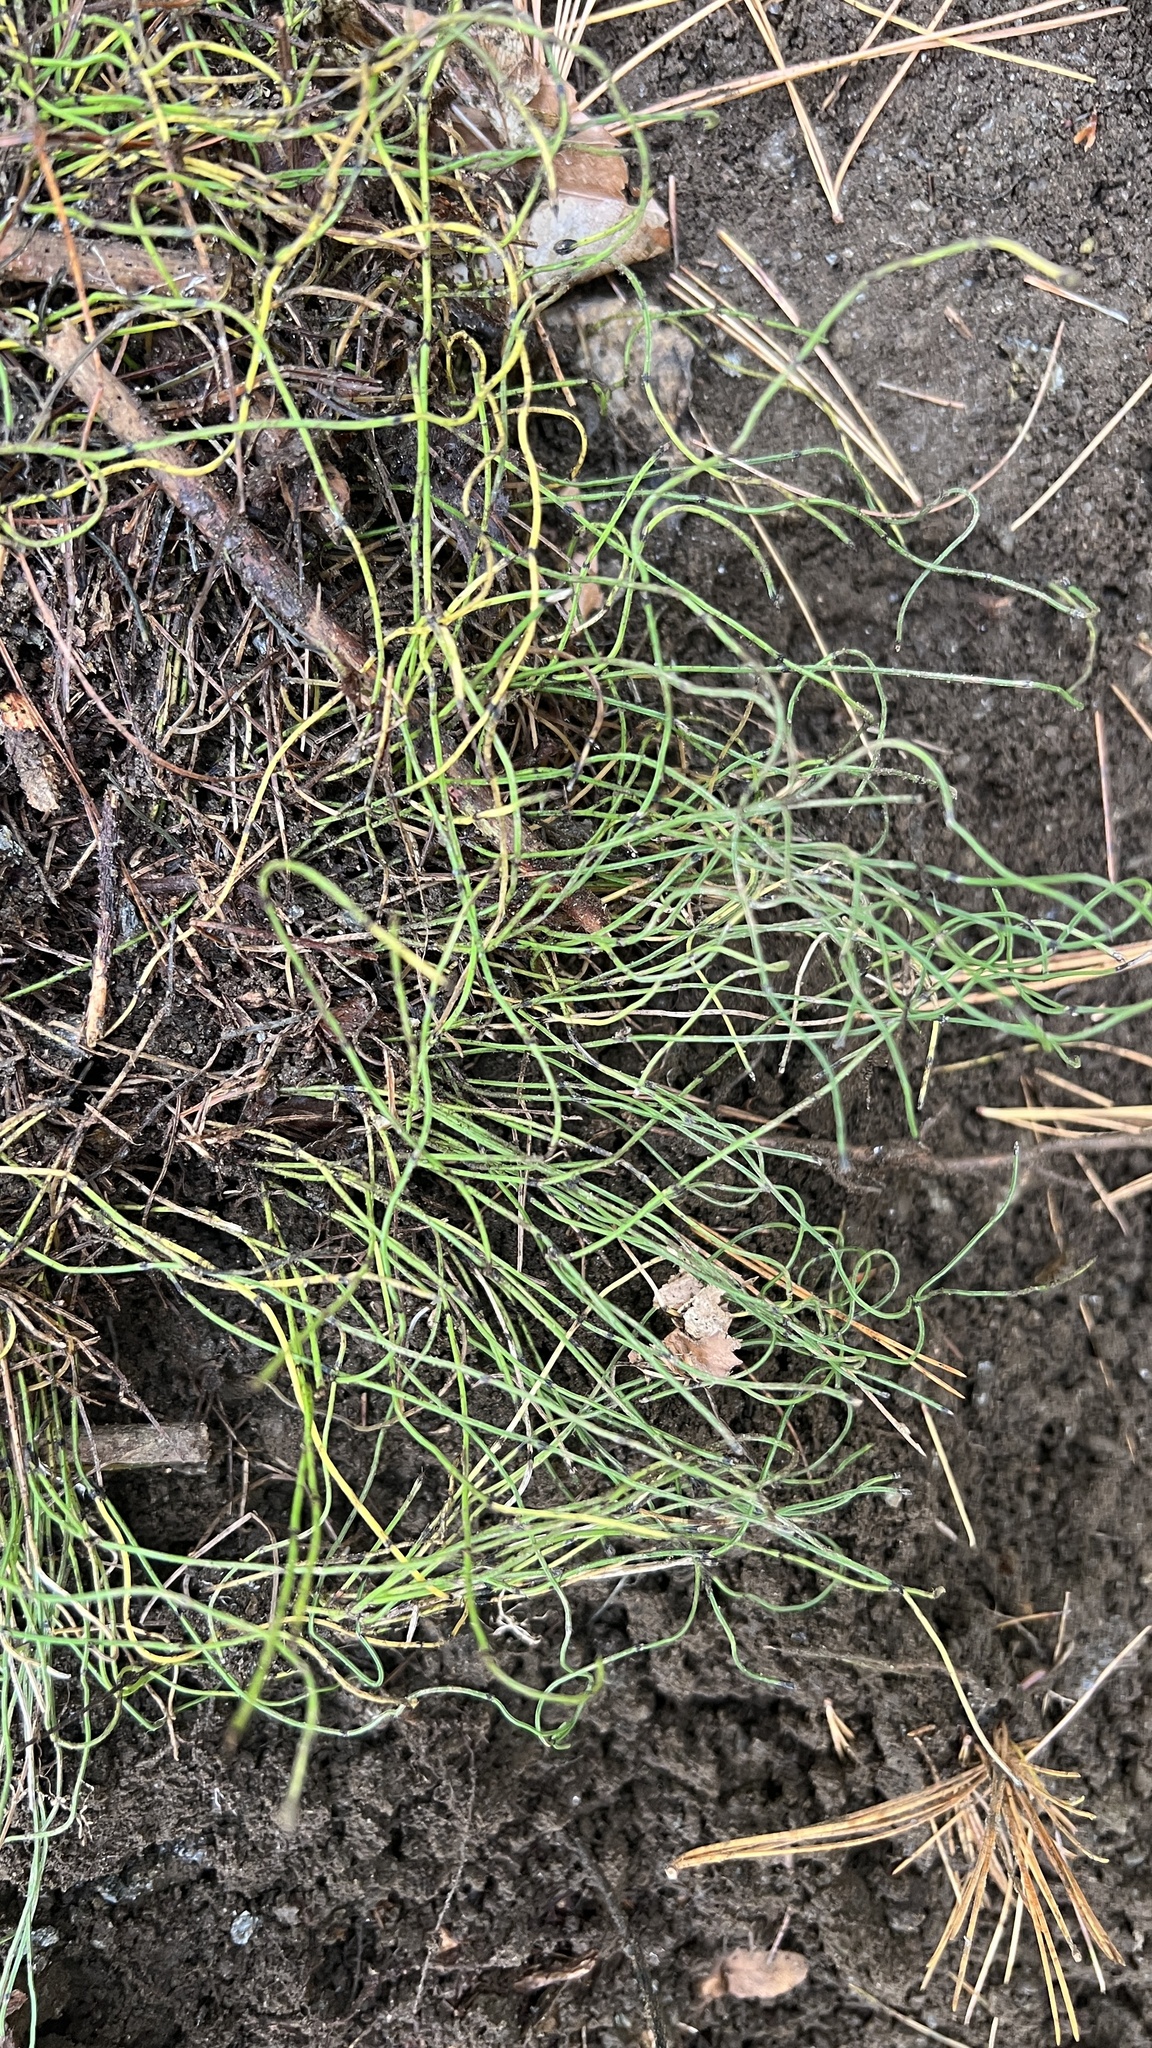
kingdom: Plantae
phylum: Tracheophyta
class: Polypodiopsida
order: Equisetales
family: Equisetaceae
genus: Equisetum
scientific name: Equisetum scirpoides
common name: Delicate horsetail
